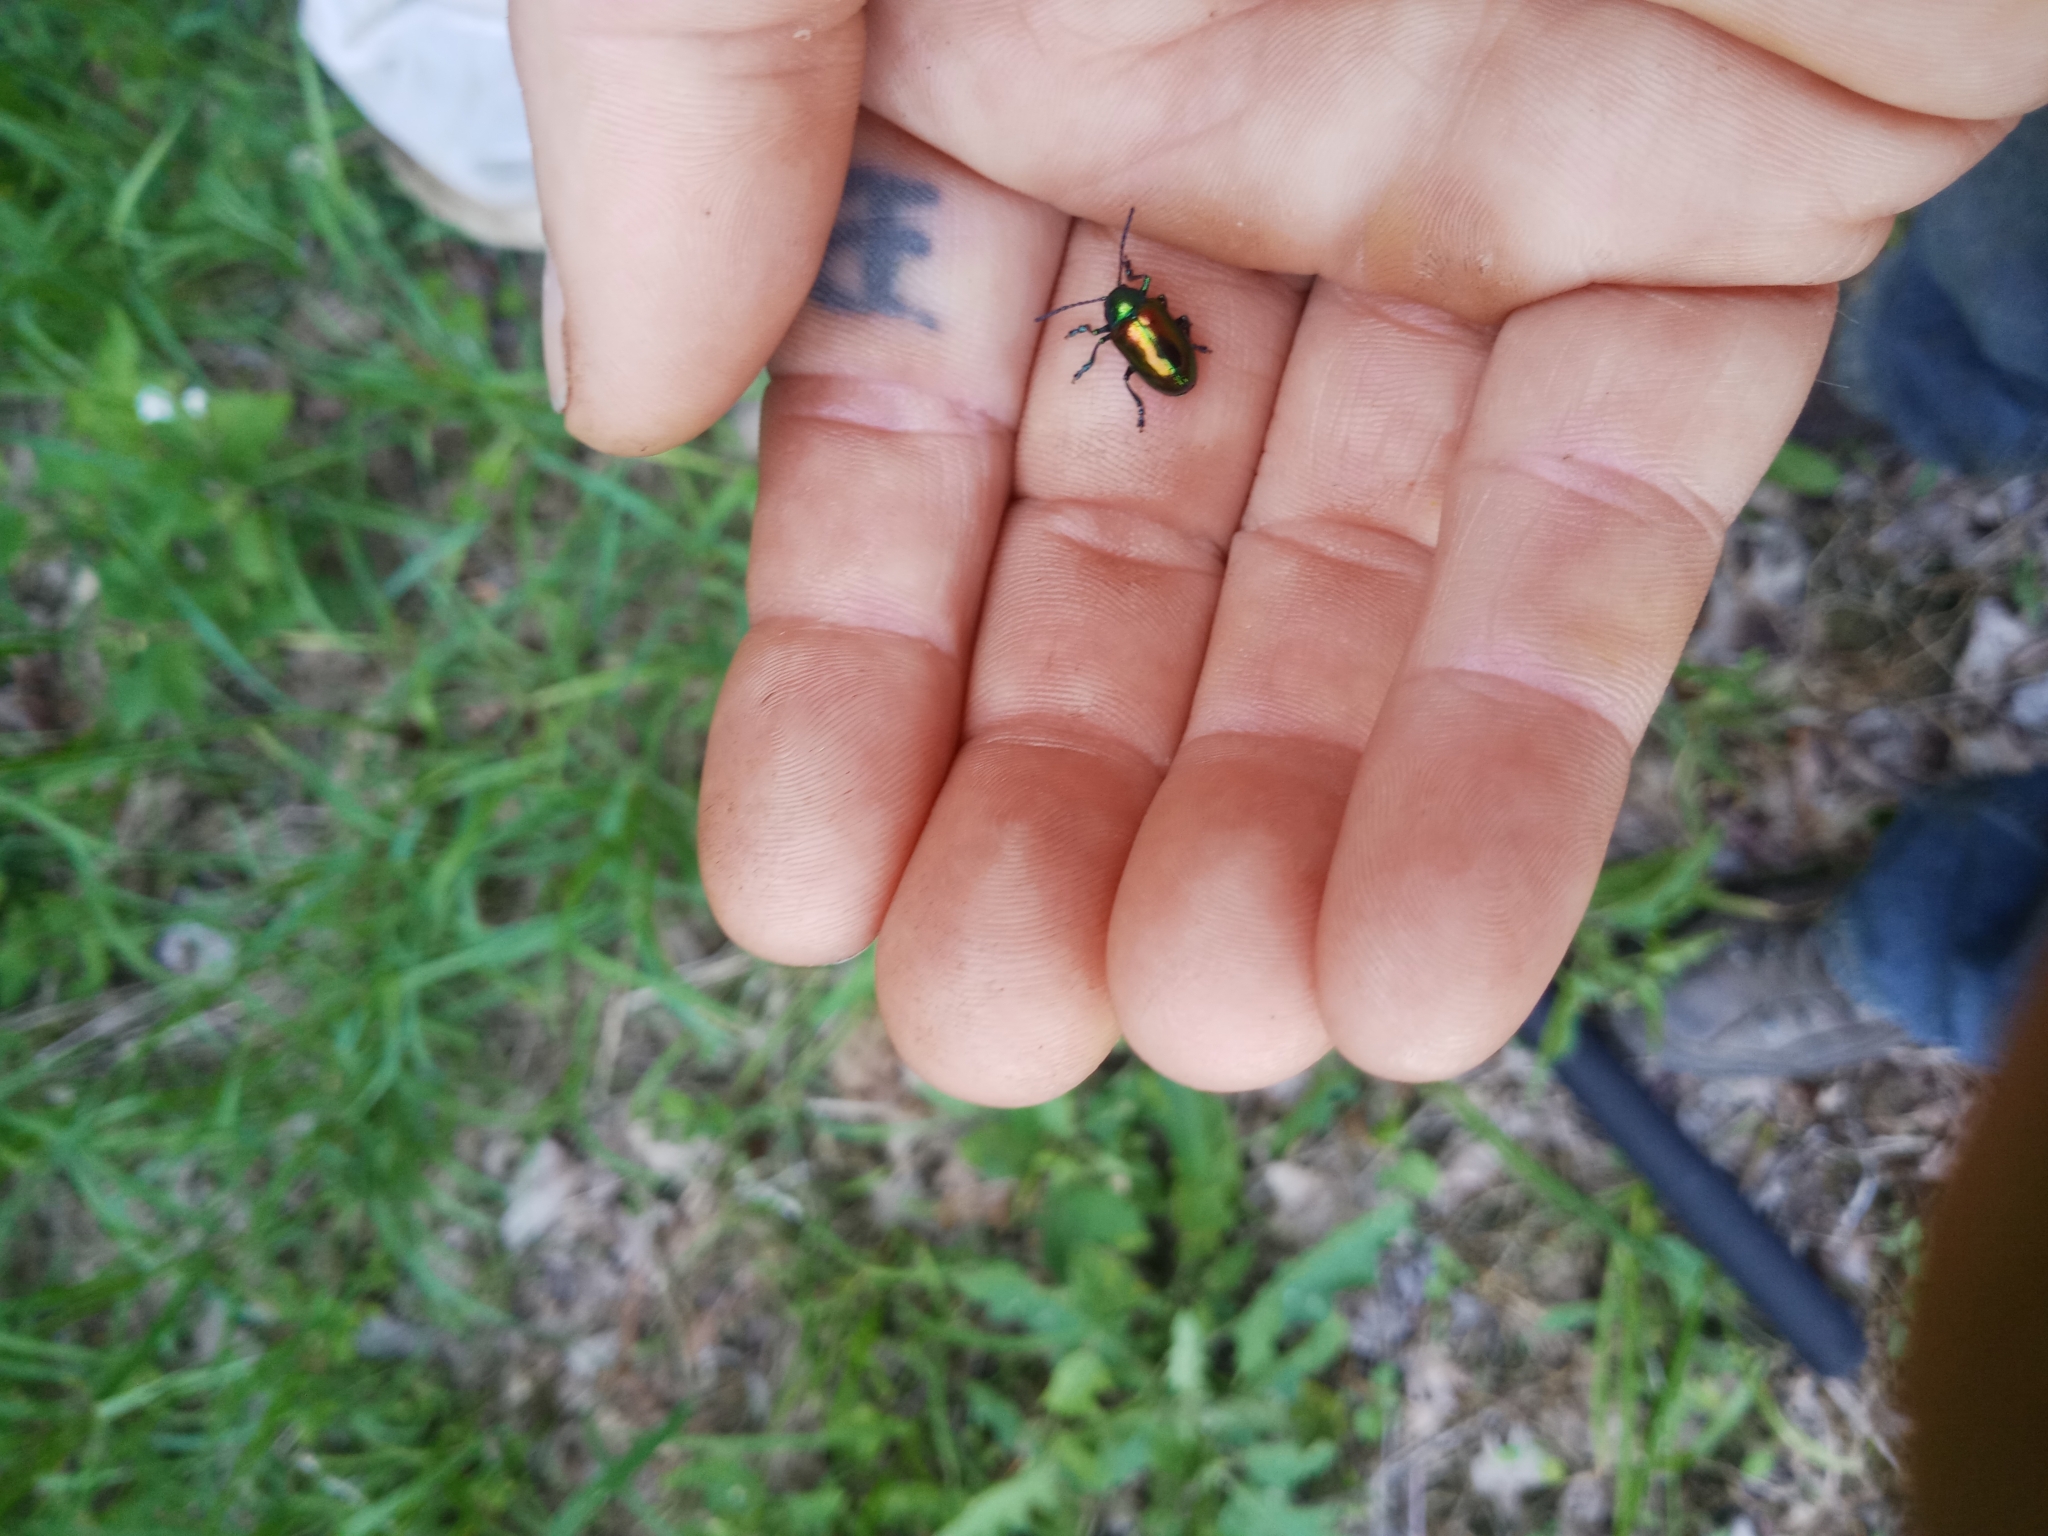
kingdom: Animalia
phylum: Arthropoda
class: Insecta
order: Coleoptera
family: Chrysomelidae
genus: Chrysochus
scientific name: Chrysochus auratus
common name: Dogbane leaf beetle
